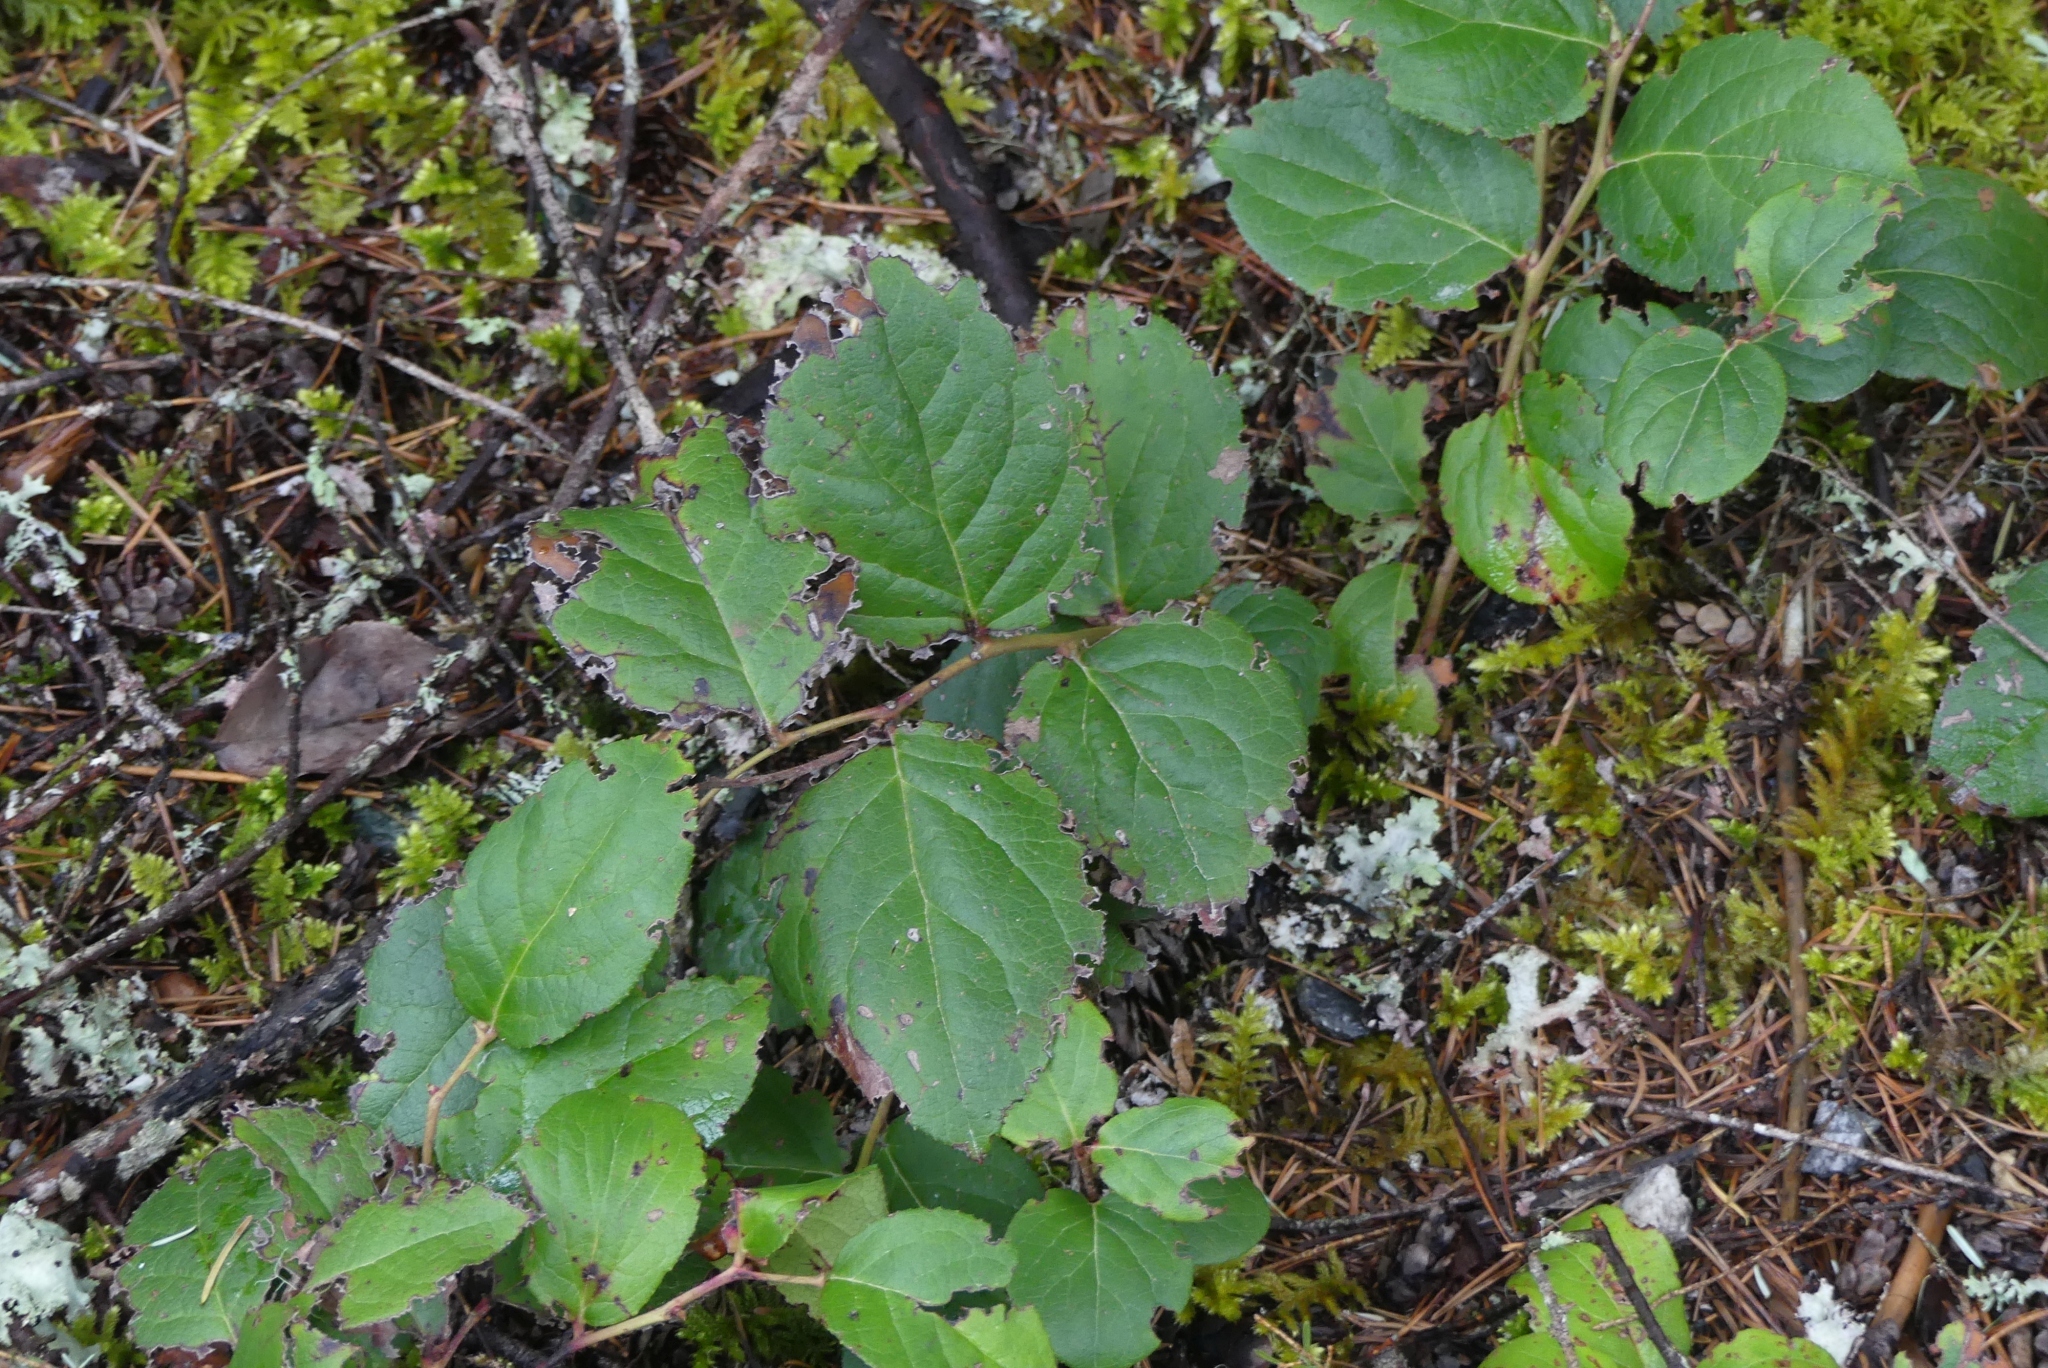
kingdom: Plantae
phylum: Tracheophyta
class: Magnoliopsida
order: Ericales
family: Ericaceae
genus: Gaultheria
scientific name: Gaultheria shallon
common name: Shallon
